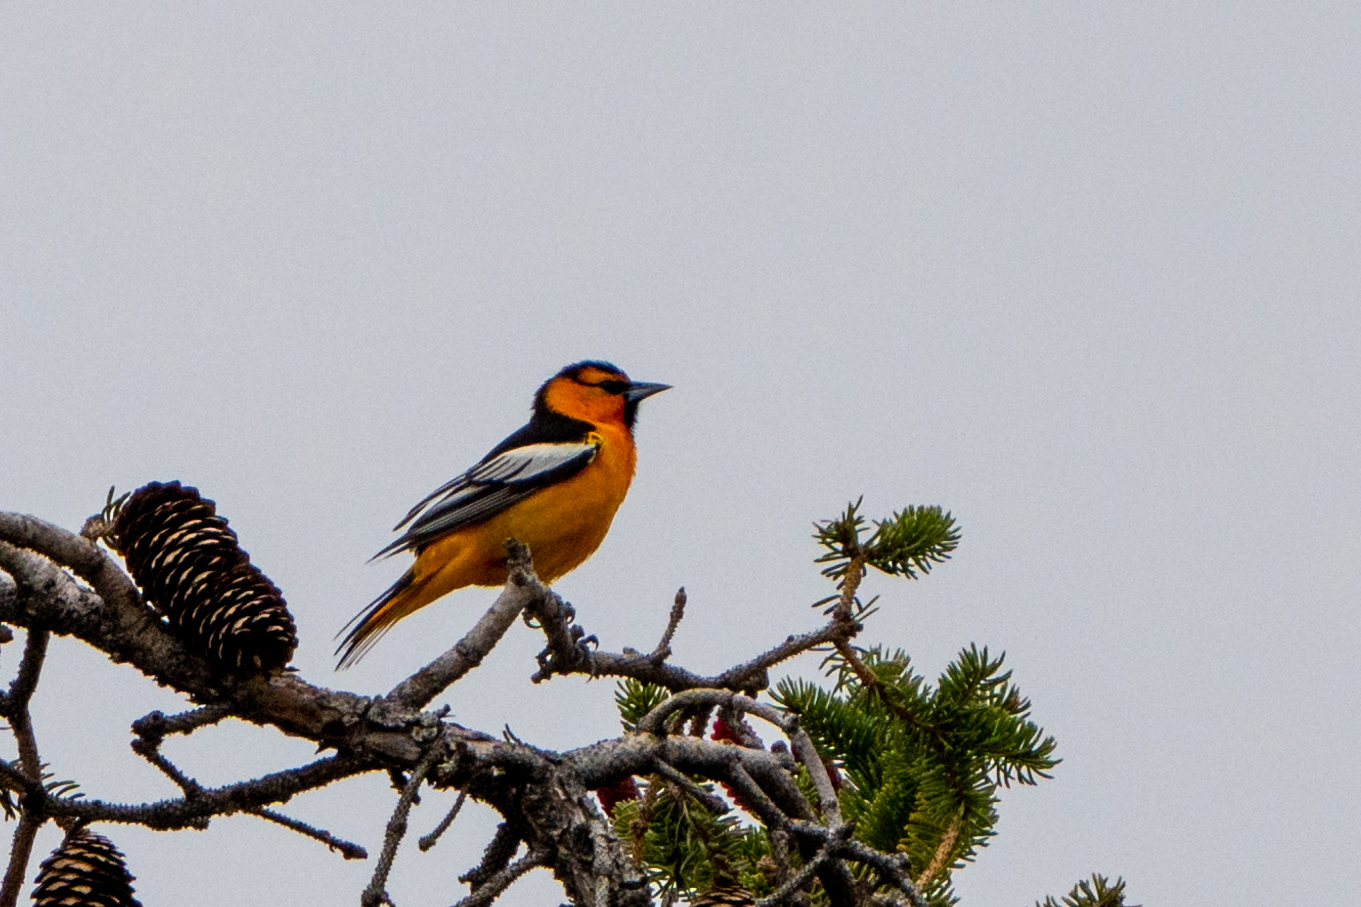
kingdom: Animalia
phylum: Chordata
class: Aves
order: Passeriformes
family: Icteridae
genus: Icterus
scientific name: Icterus bullockii
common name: Bullock's oriole
